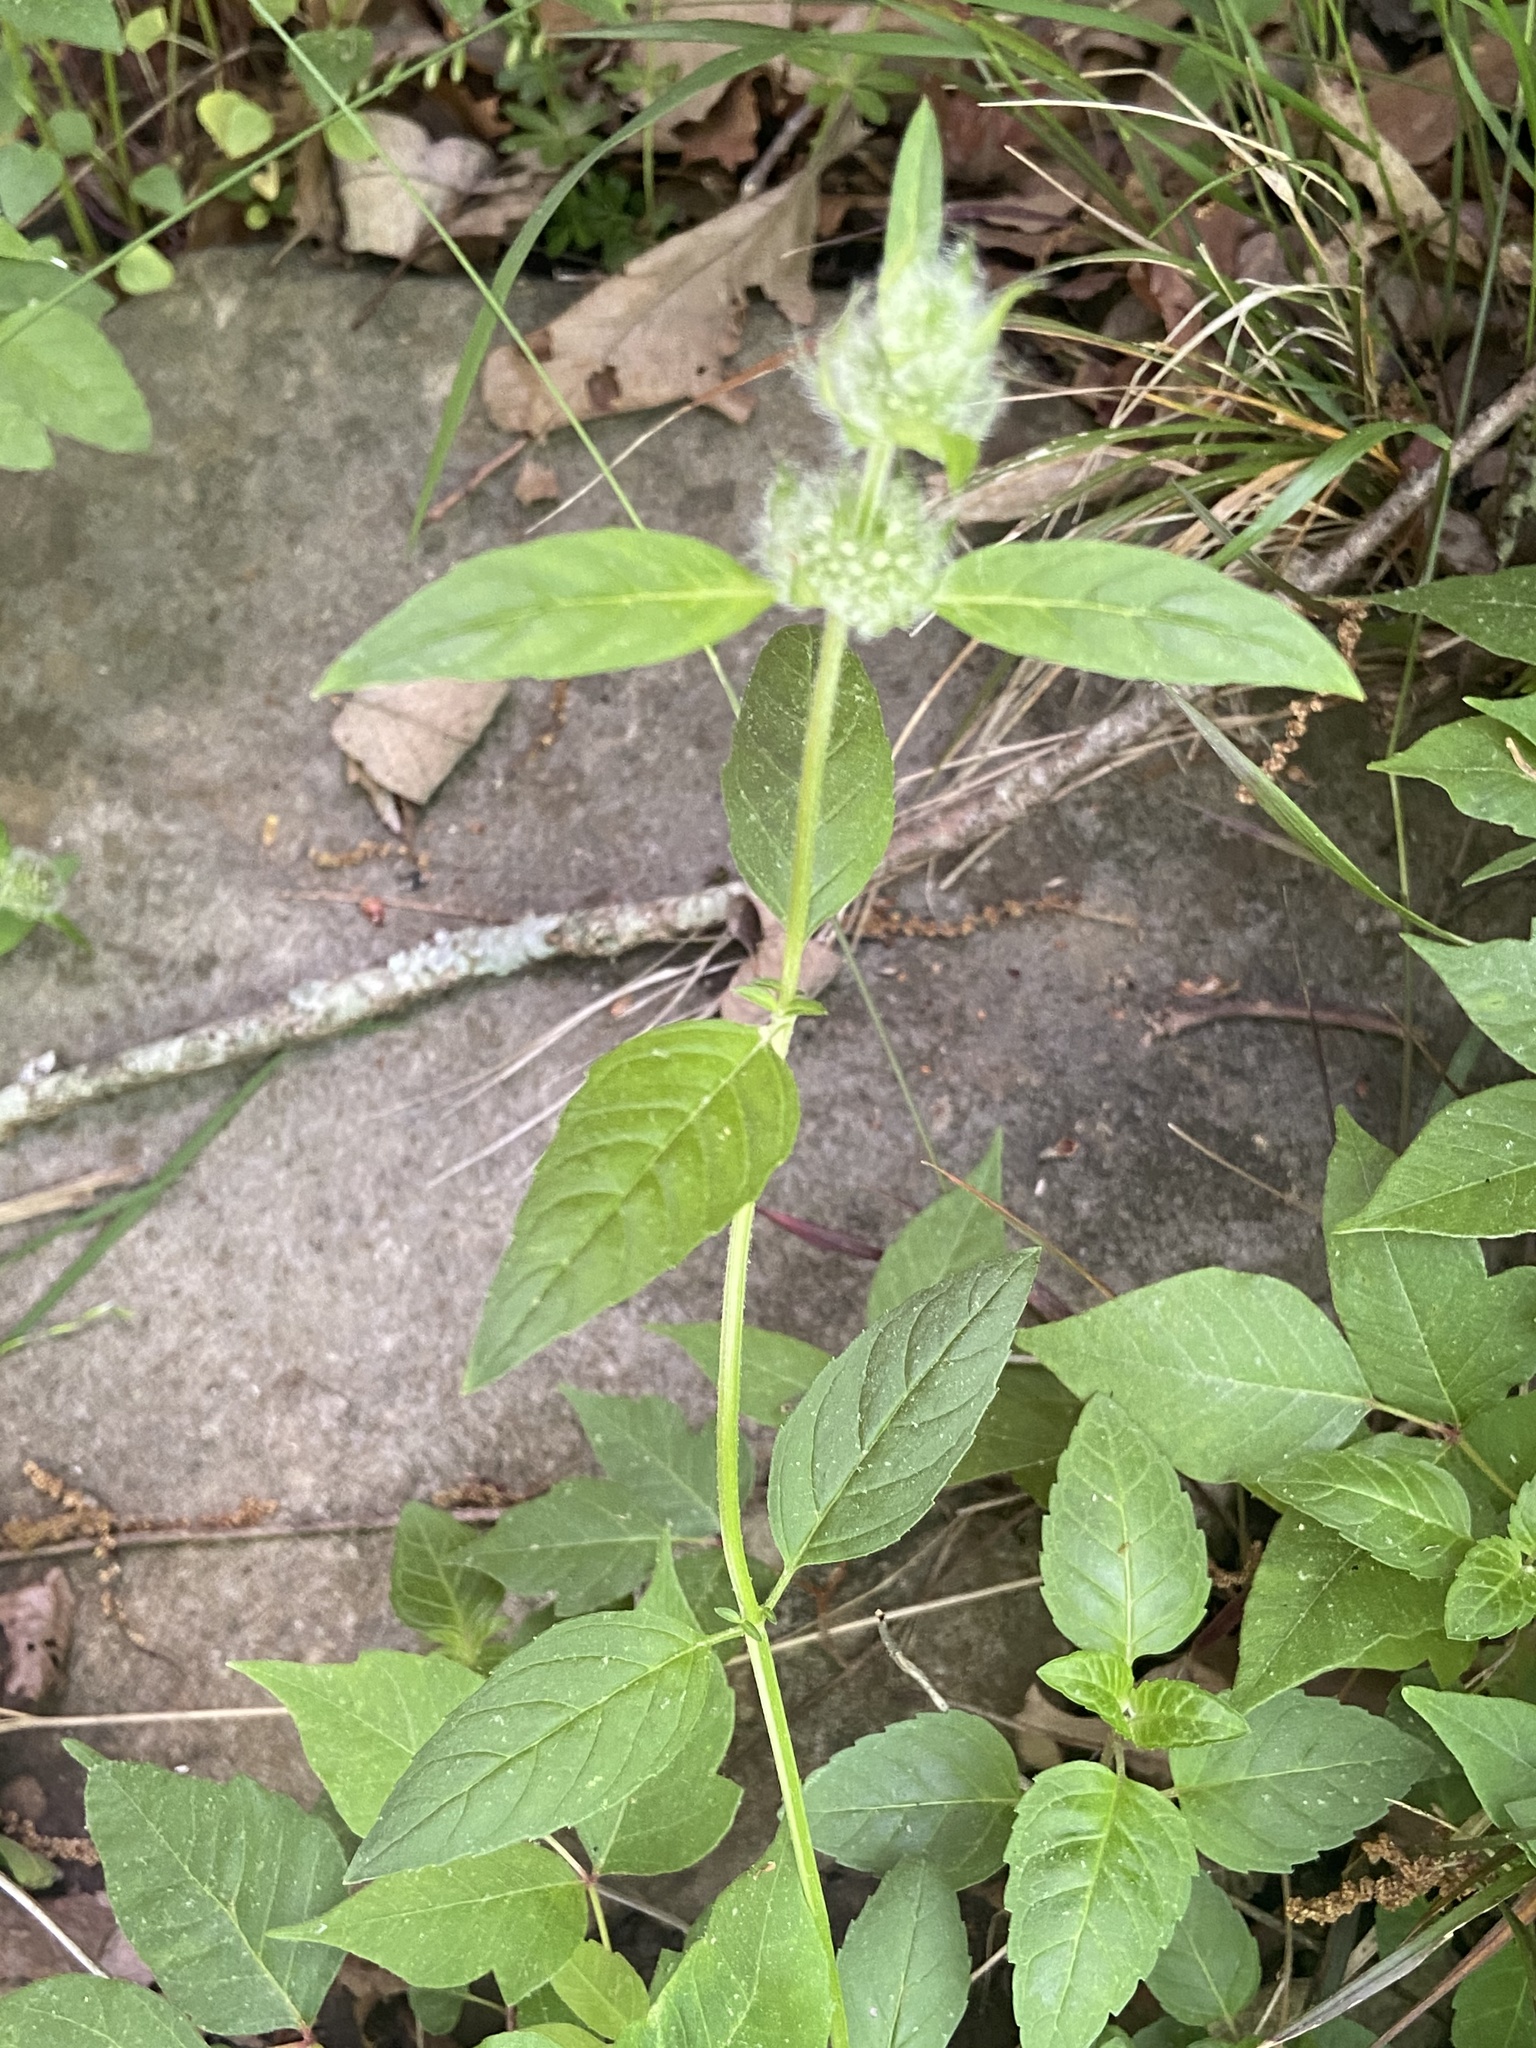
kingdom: Plantae
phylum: Tracheophyta
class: Magnoliopsida
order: Lamiales
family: Lamiaceae
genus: Blephilia
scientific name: Blephilia subnuda
